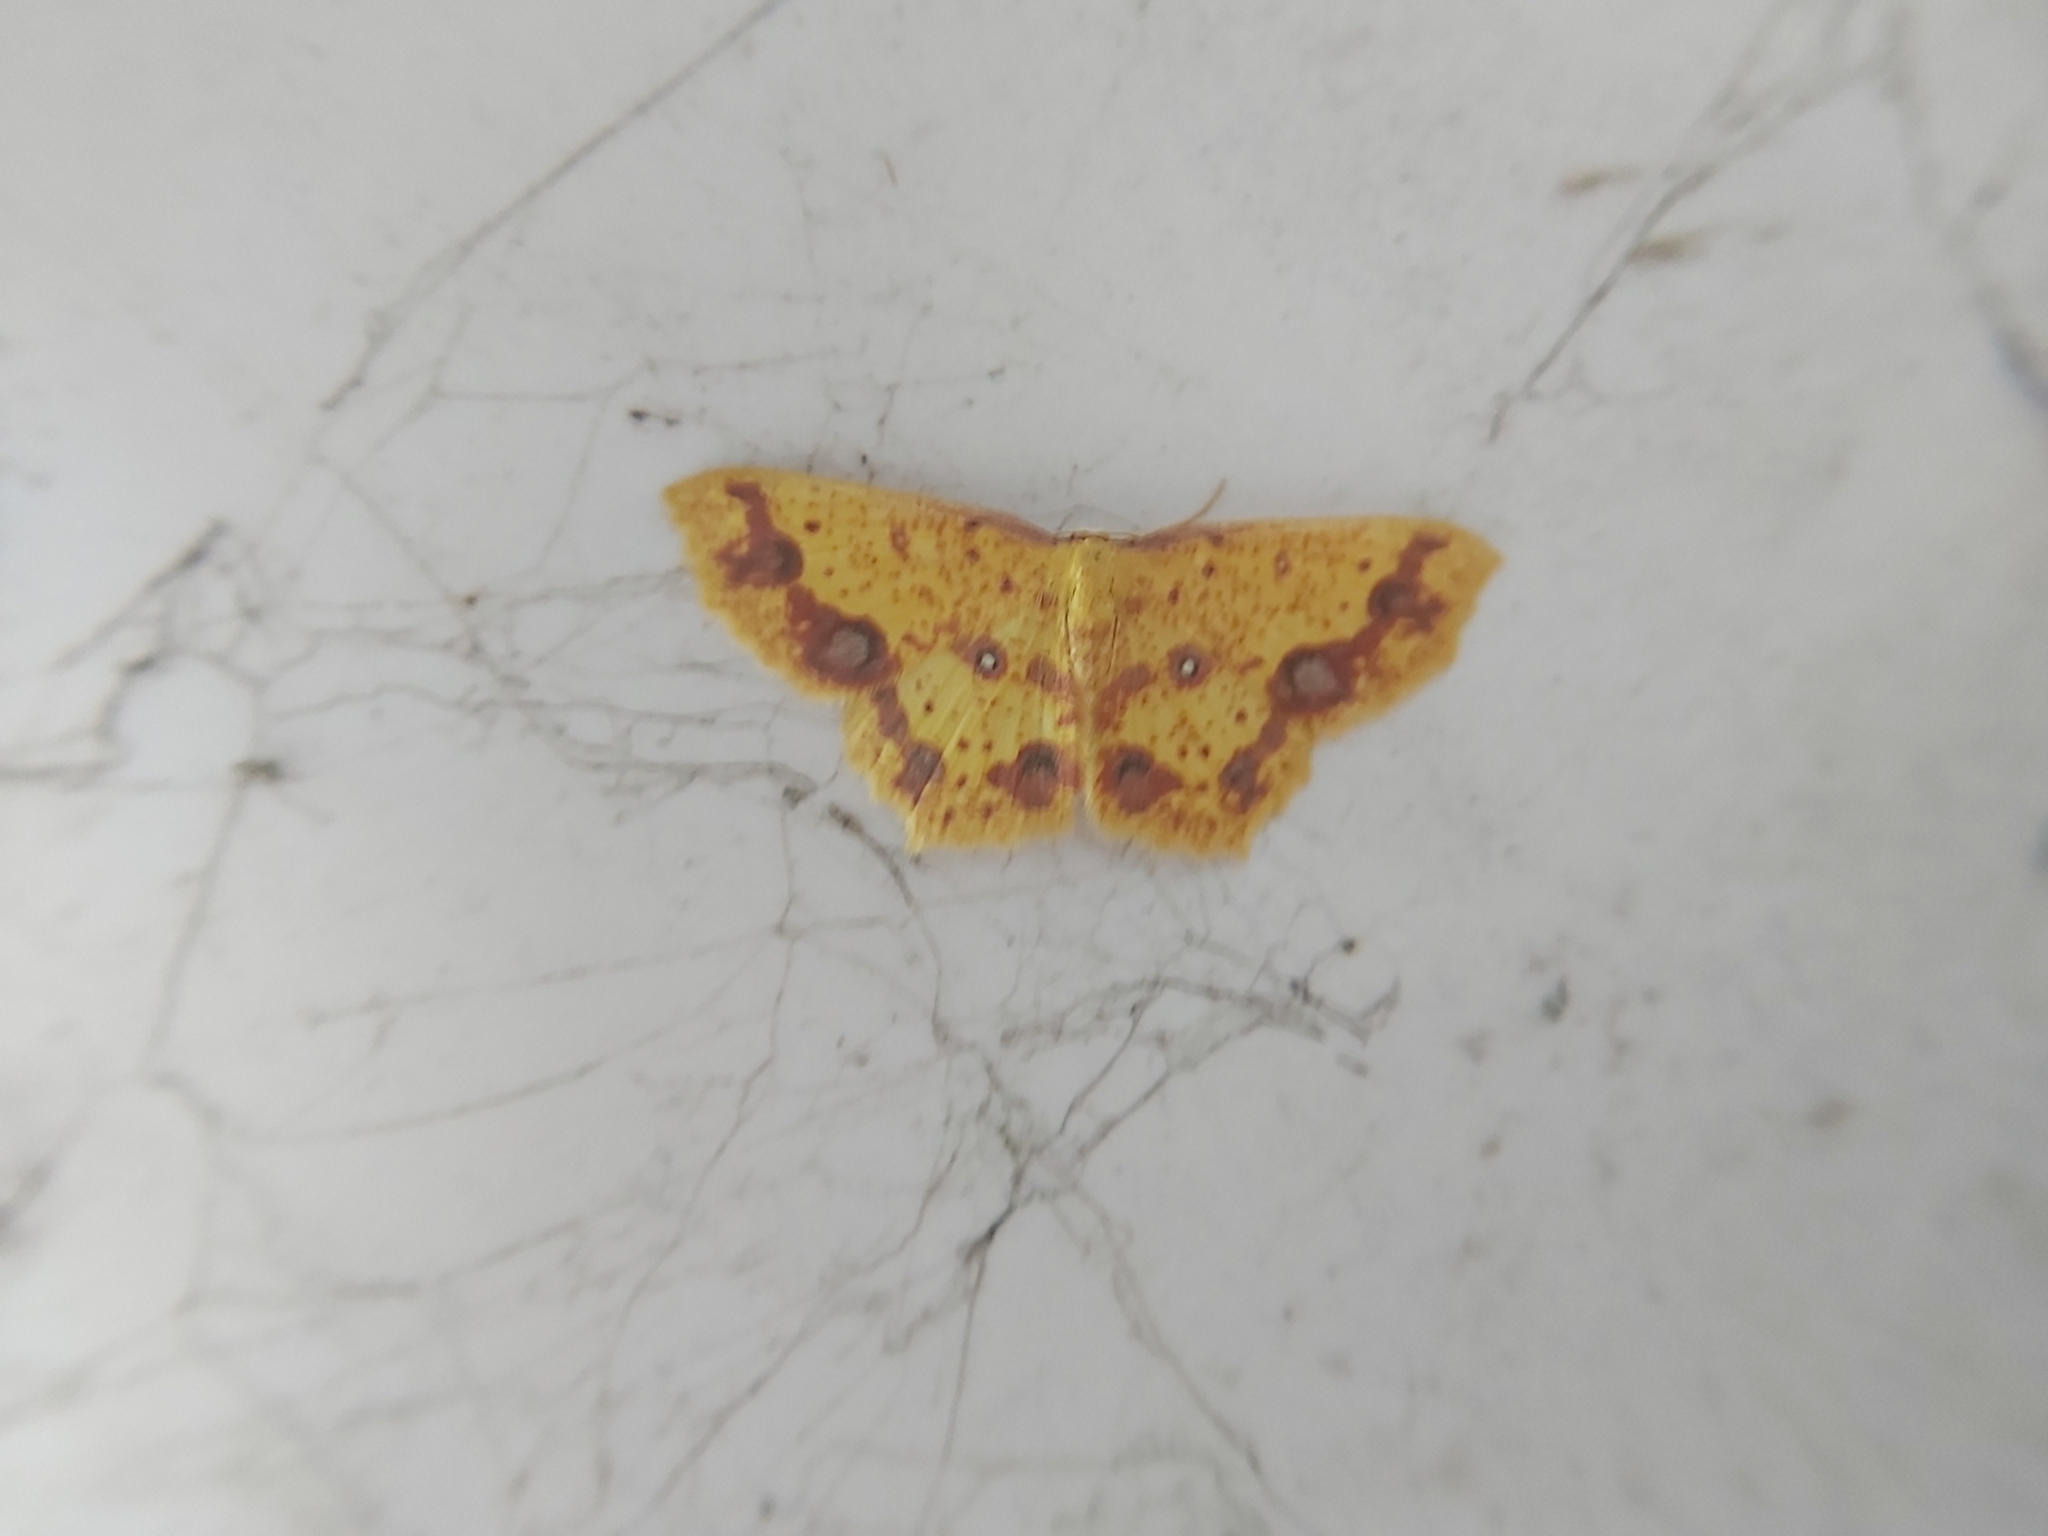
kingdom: Animalia
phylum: Arthropoda
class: Insecta
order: Lepidoptera
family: Geometridae
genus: Synegiodes
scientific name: Synegiodes sanguinaria
